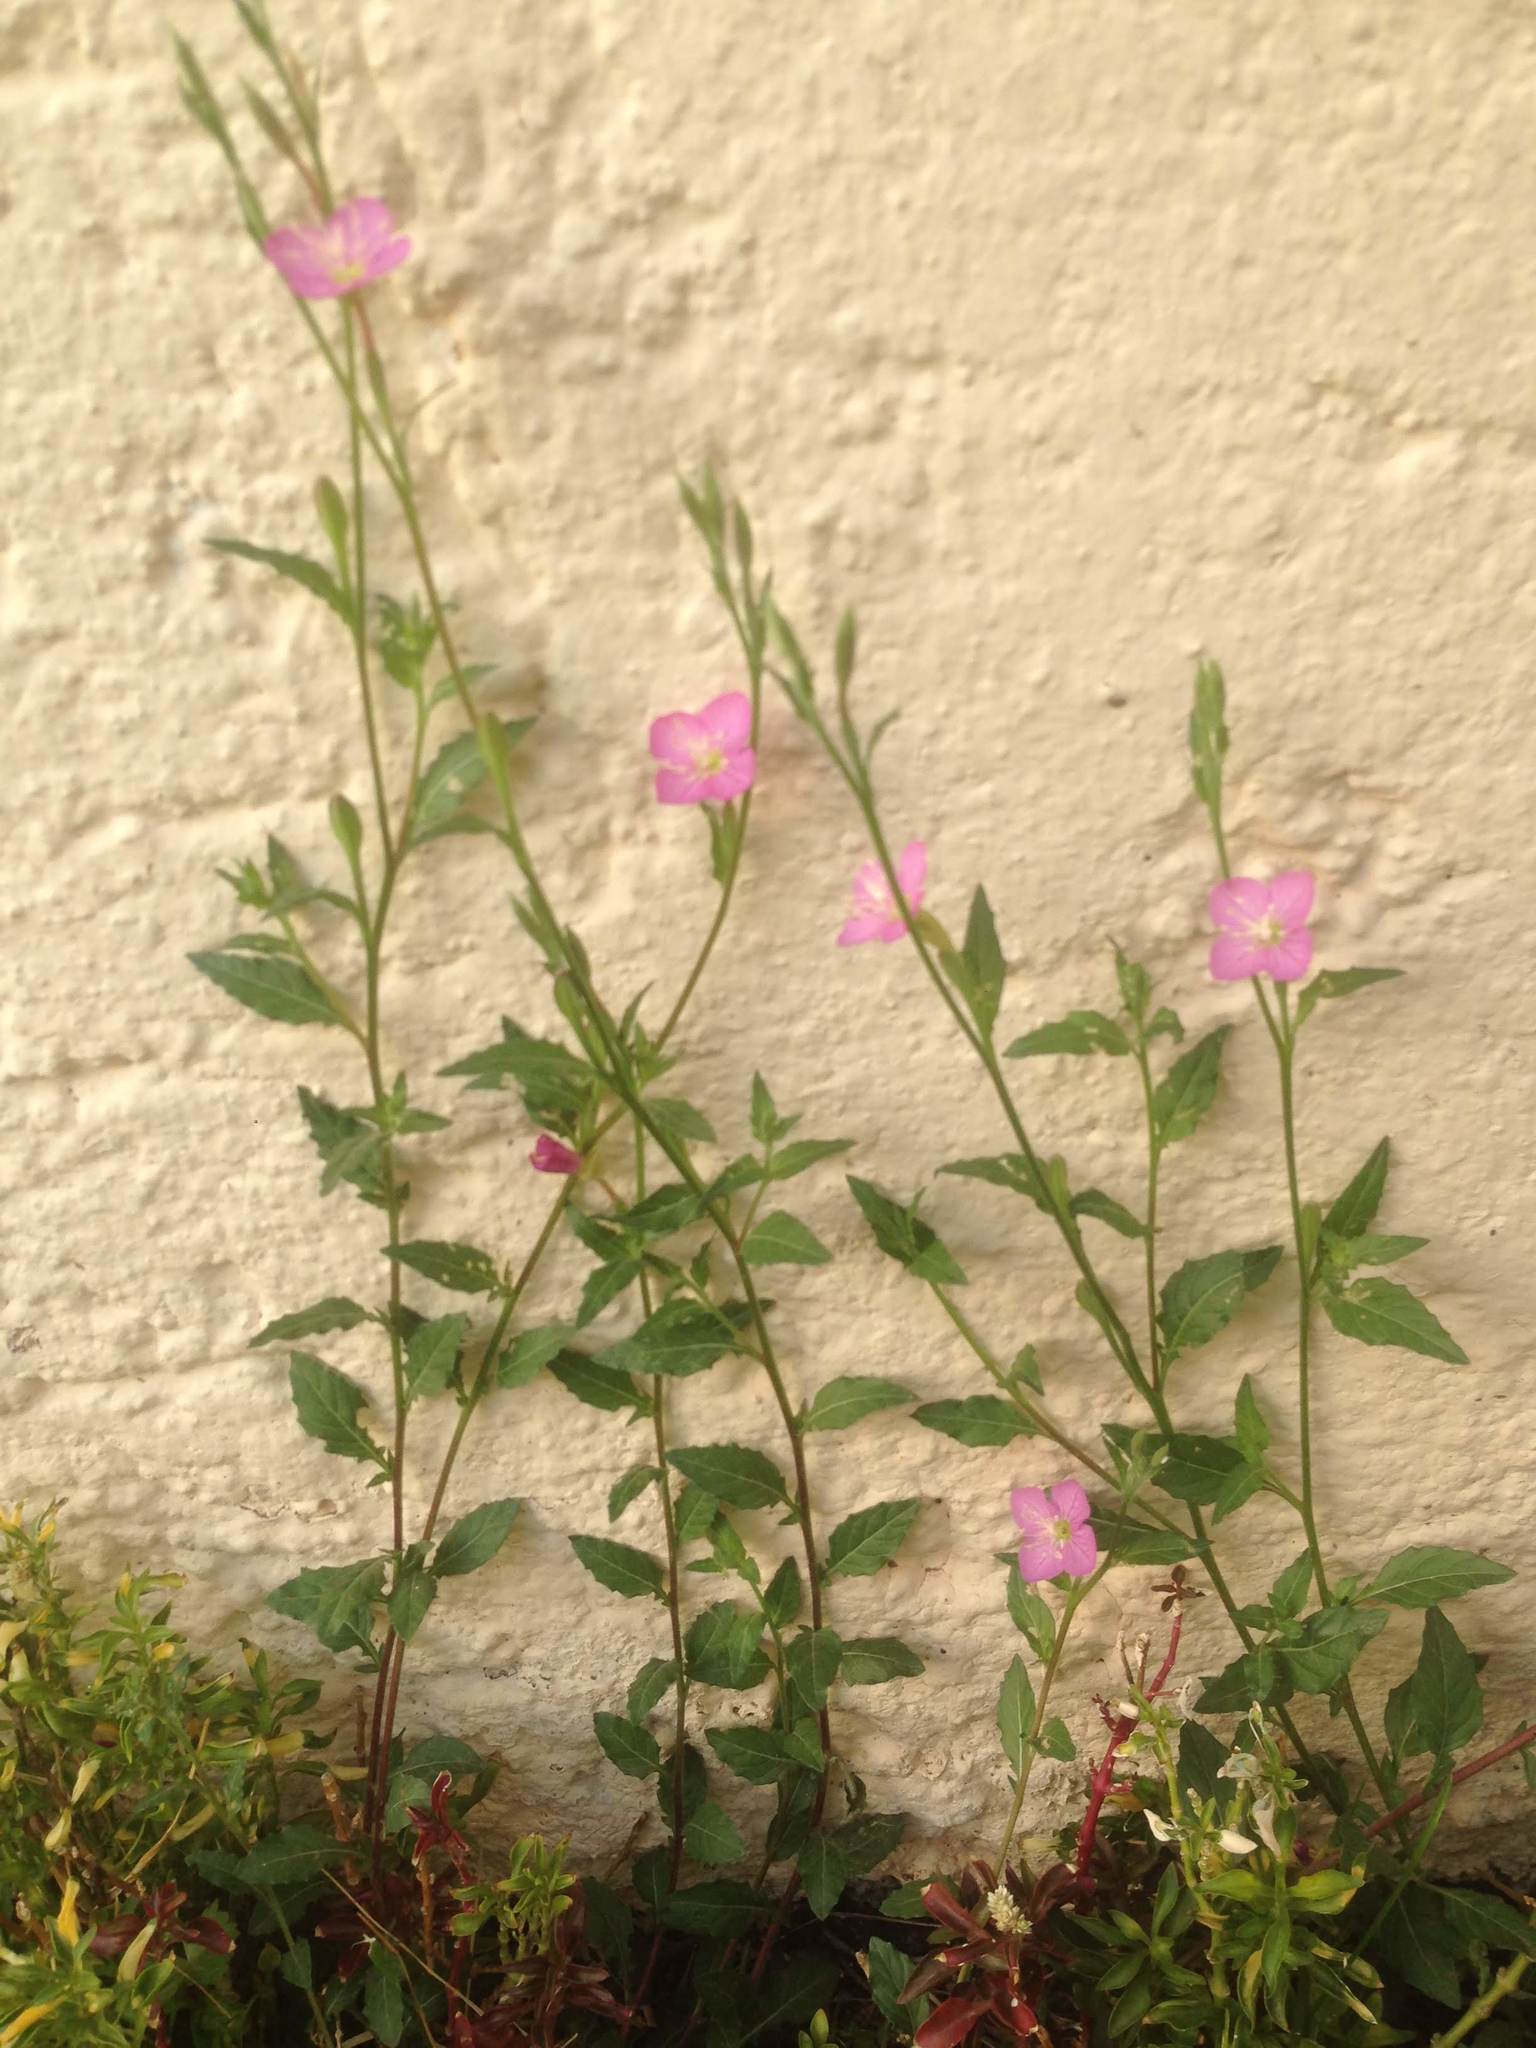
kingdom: Plantae
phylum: Tracheophyta
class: Magnoliopsida
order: Myrtales
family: Onagraceae
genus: Oenothera
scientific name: Oenothera rosea
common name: Rosy evening-primrose
